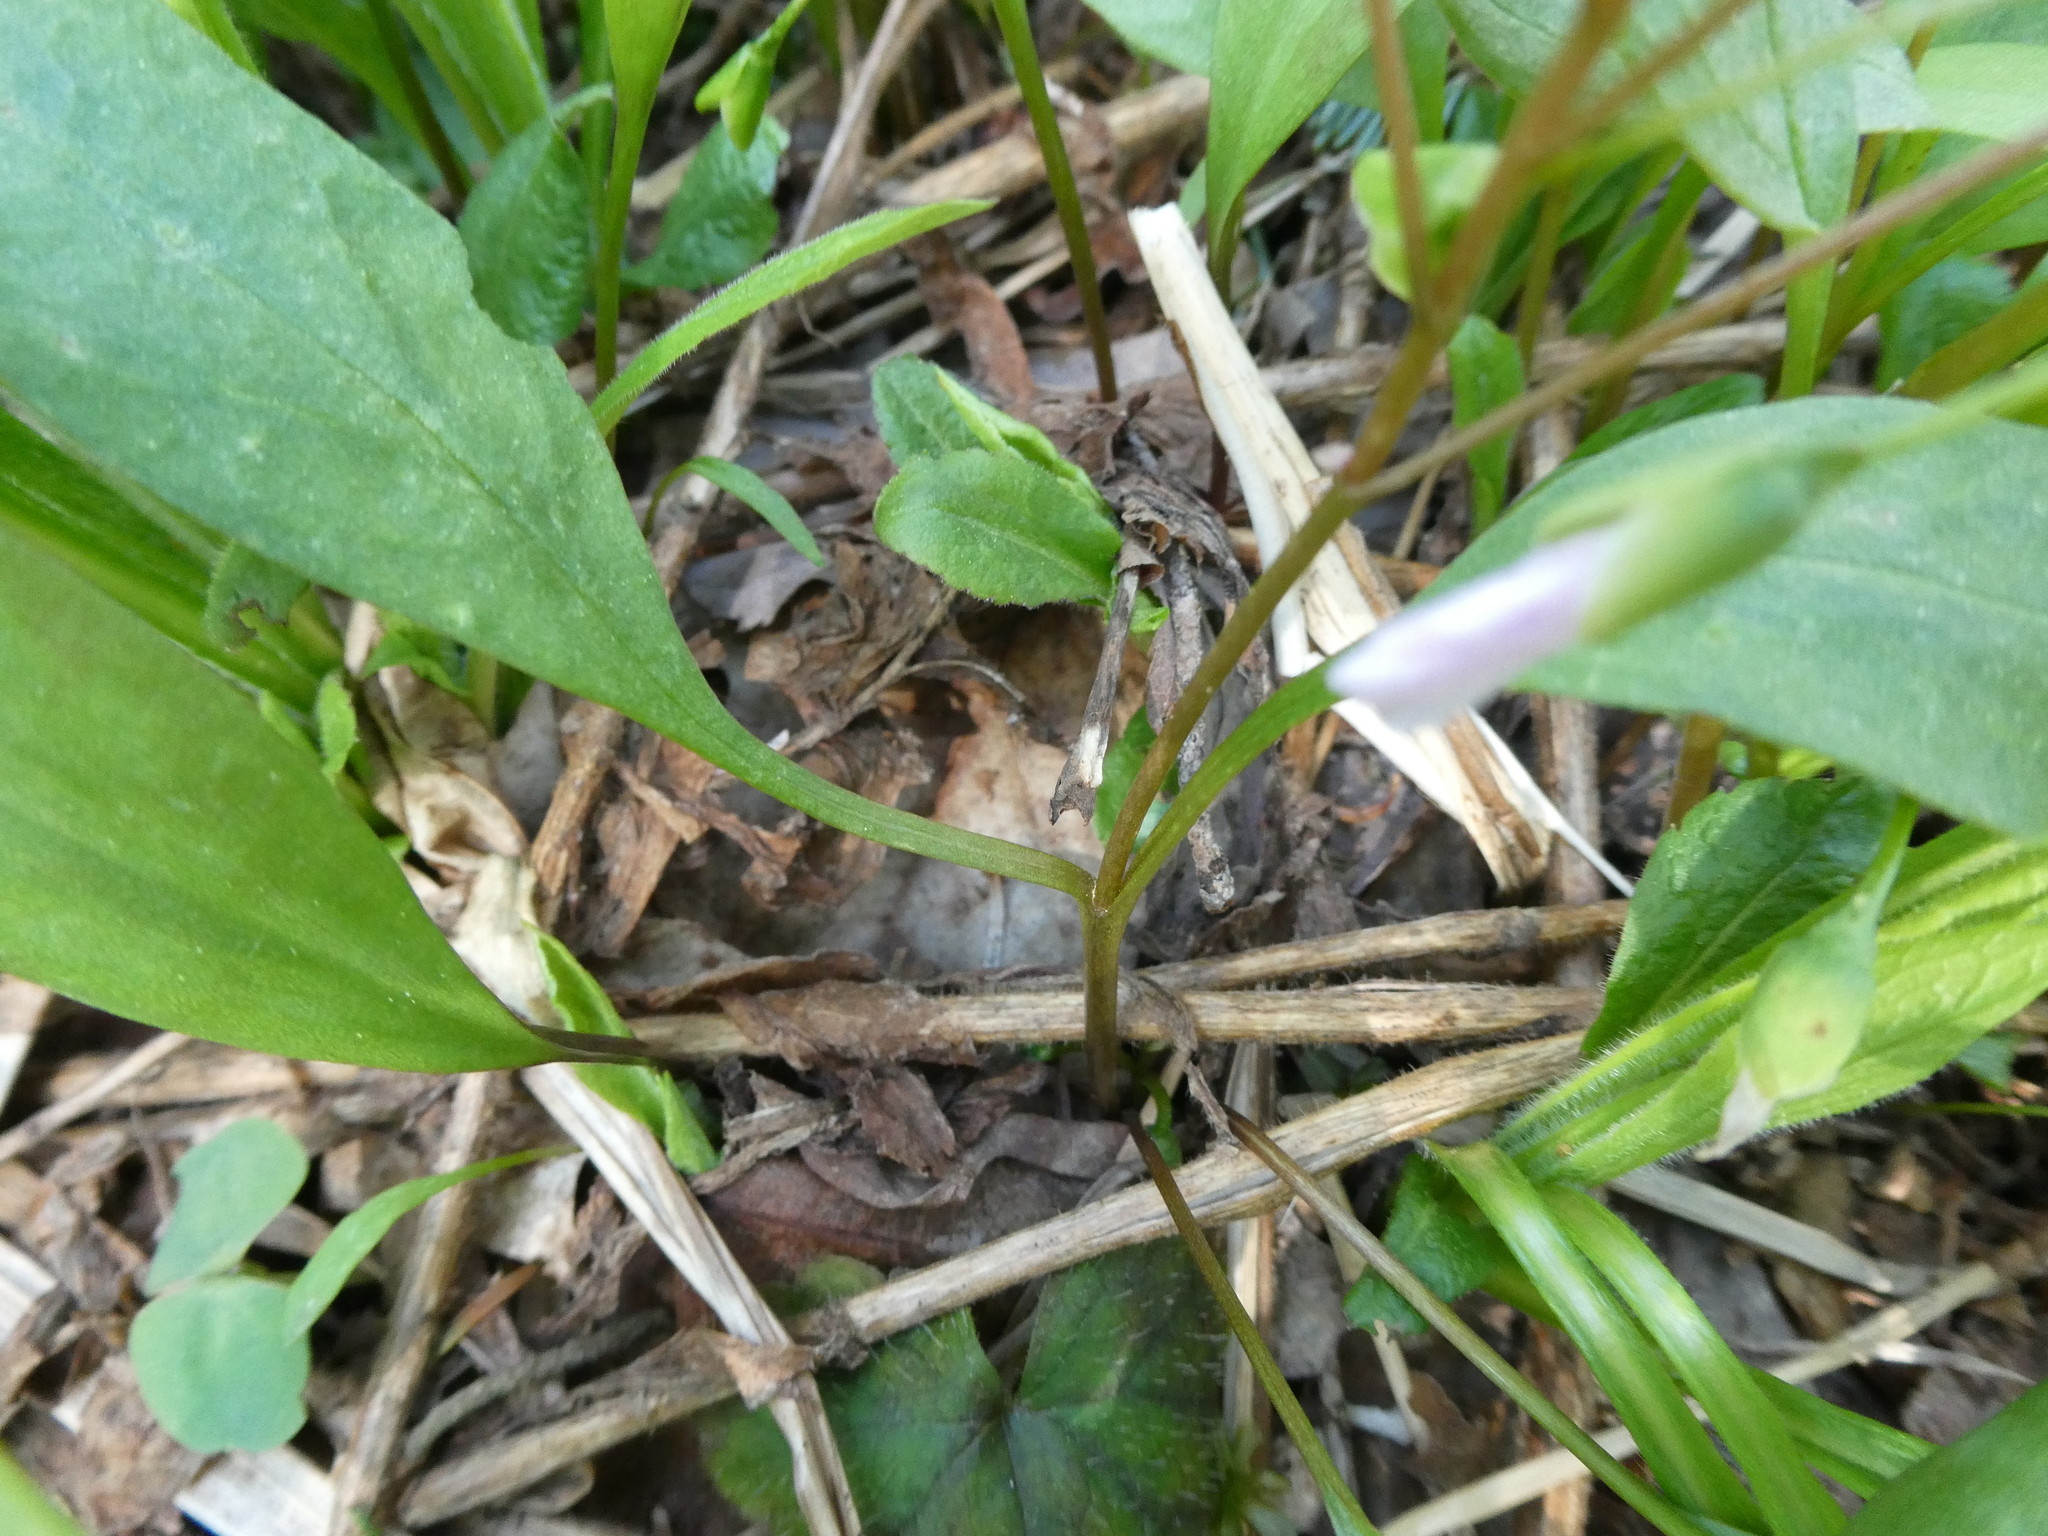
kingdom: Plantae
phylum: Tracheophyta
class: Magnoliopsida
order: Caryophyllales
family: Montiaceae
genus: Claytonia
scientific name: Claytonia caroliniana
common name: Carolina spring beauty
